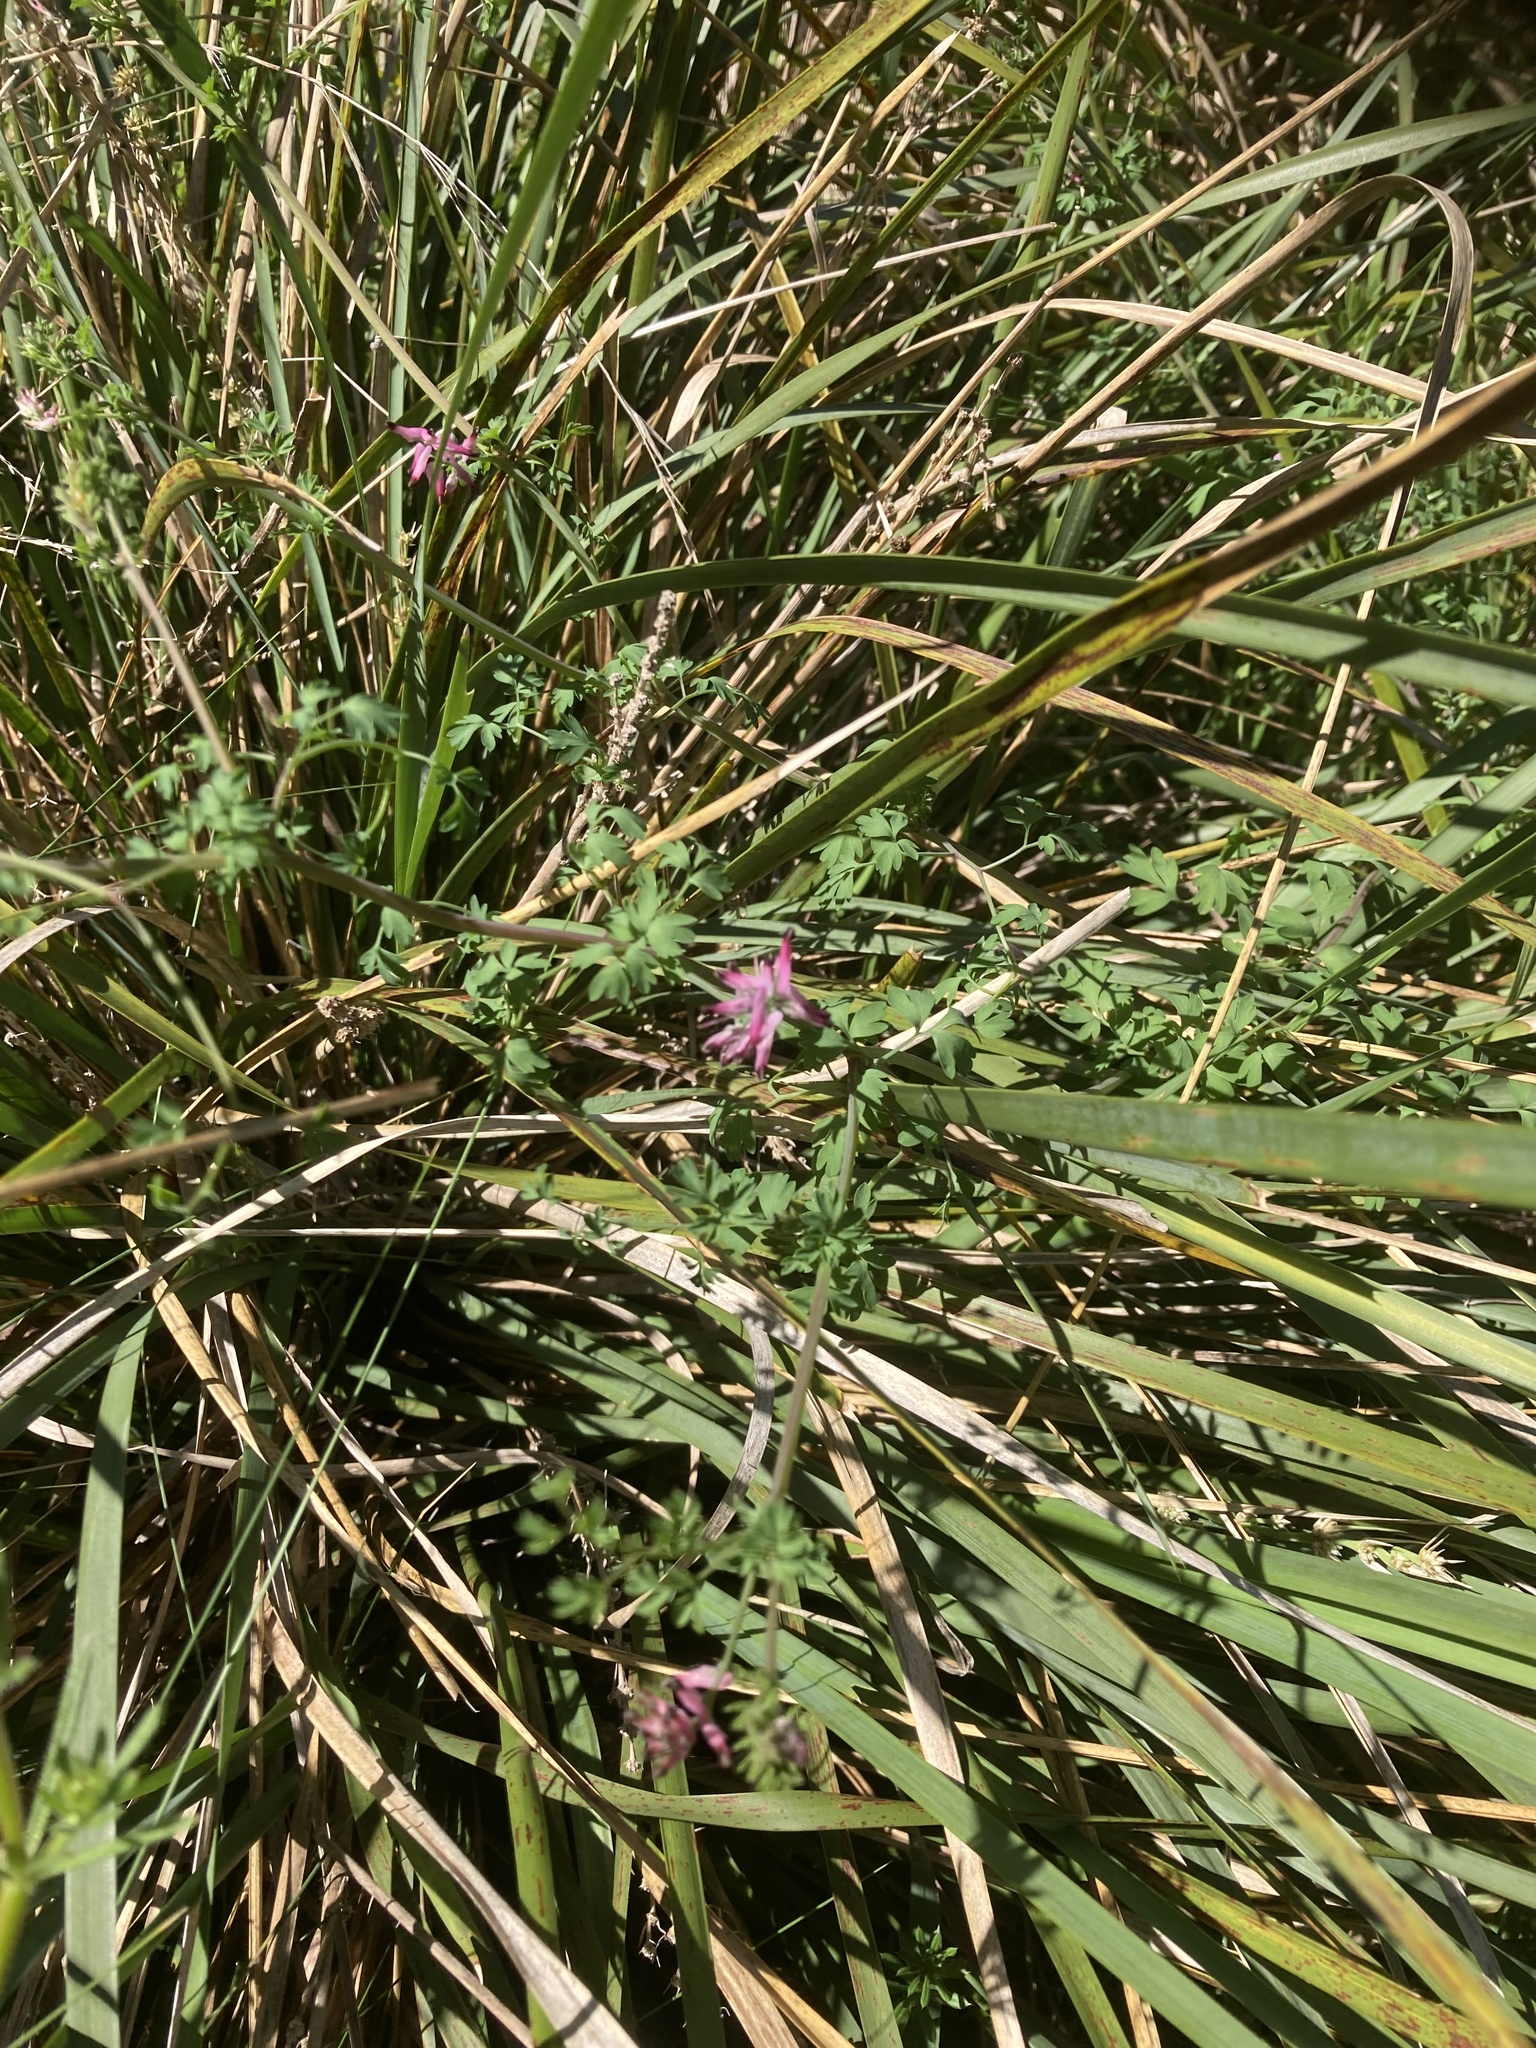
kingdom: Plantae
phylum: Tracheophyta
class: Magnoliopsida
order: Ranunculales
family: Papaveraceae
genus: Fumaria
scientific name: Fumaria muralis
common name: Common ramping-fumitory
